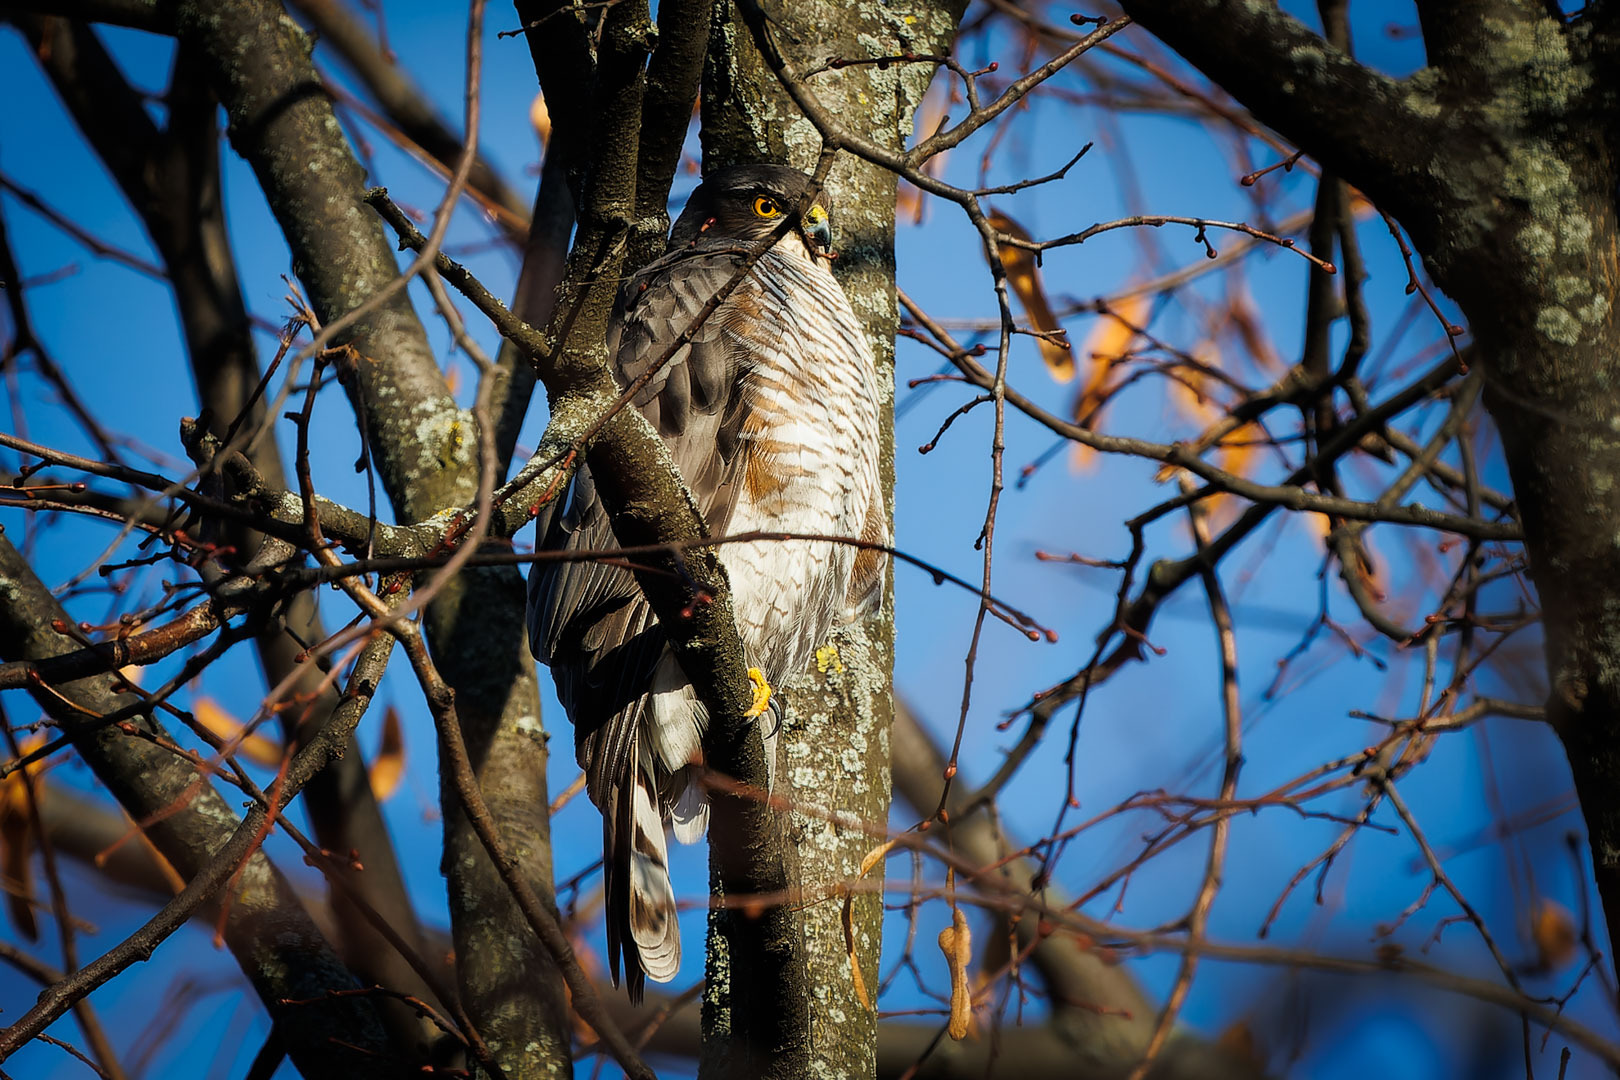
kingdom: Animalia
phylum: Chordata
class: Aves
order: Accipitriformes
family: Accipitridae
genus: Accipiter
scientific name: Accipiter nisus
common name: Eurasian sparrowhawk
